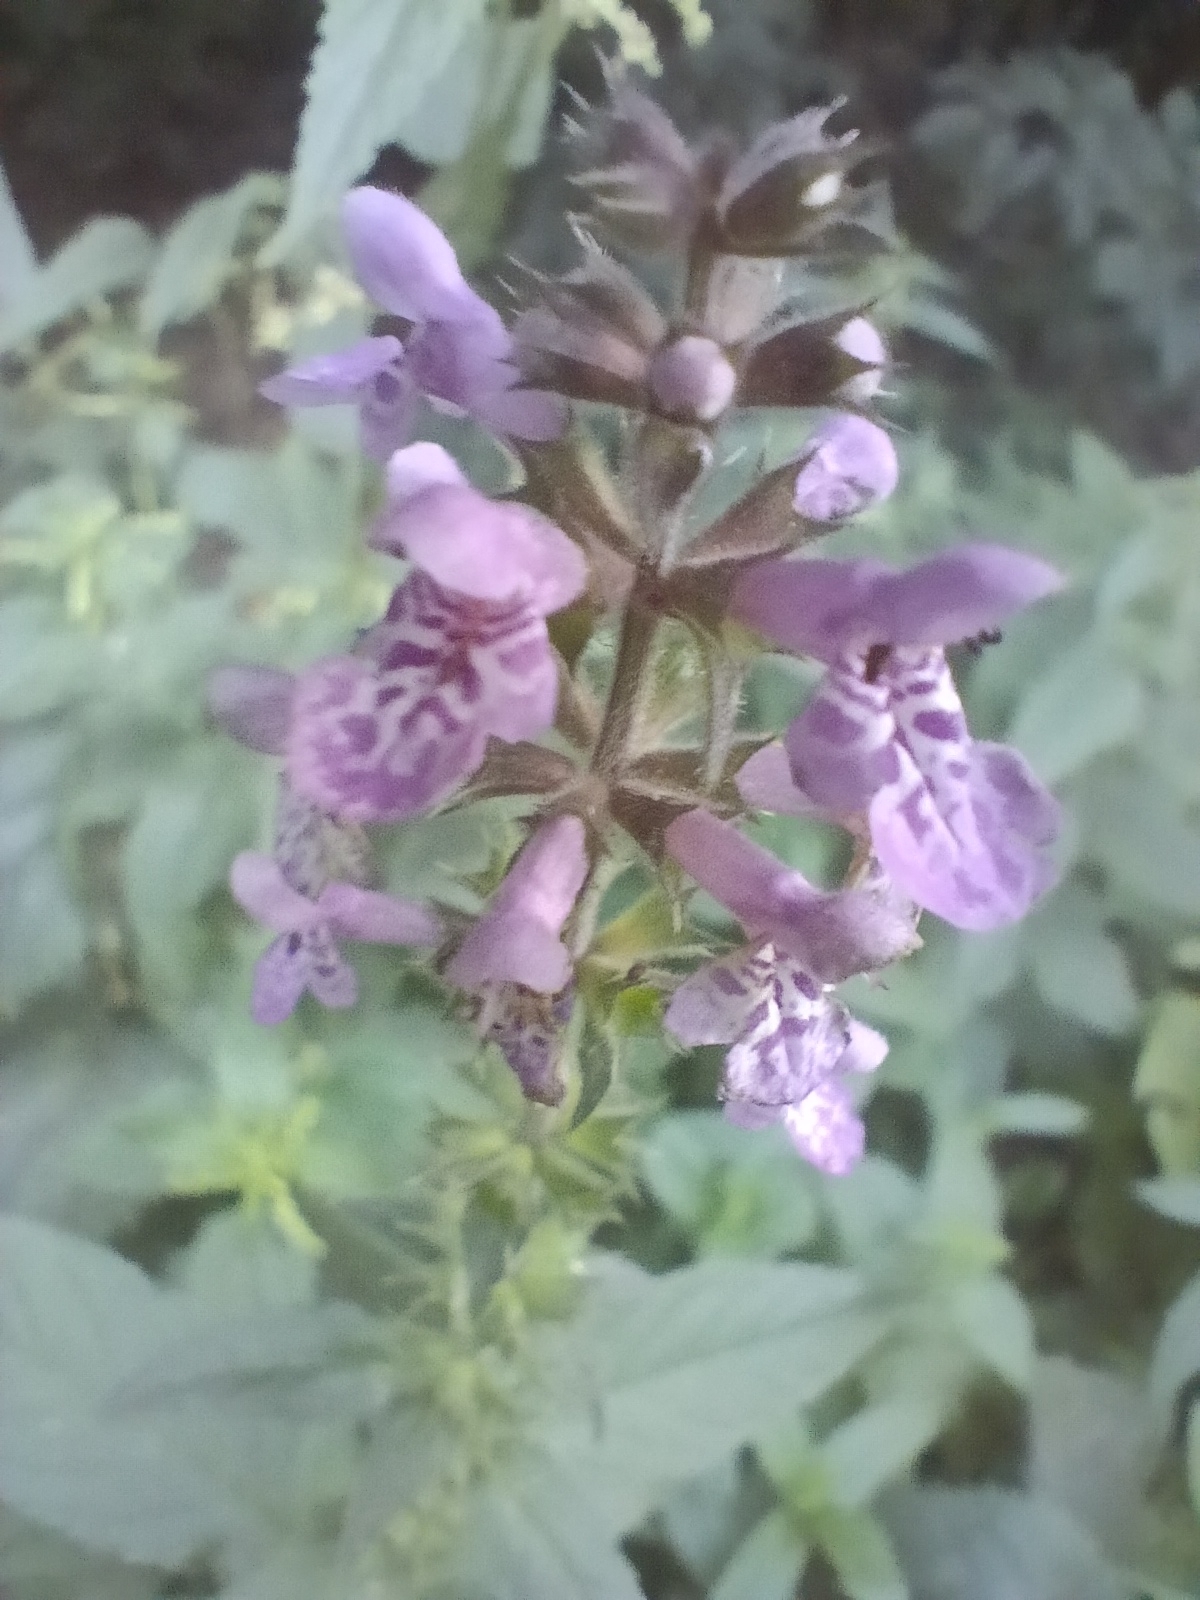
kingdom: Plantae
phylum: Tracheophyta
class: Magnoliopsida
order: Lamiales
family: Lamiaceae
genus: Stachys
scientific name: Stachys palustris
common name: Marsh woundwort
